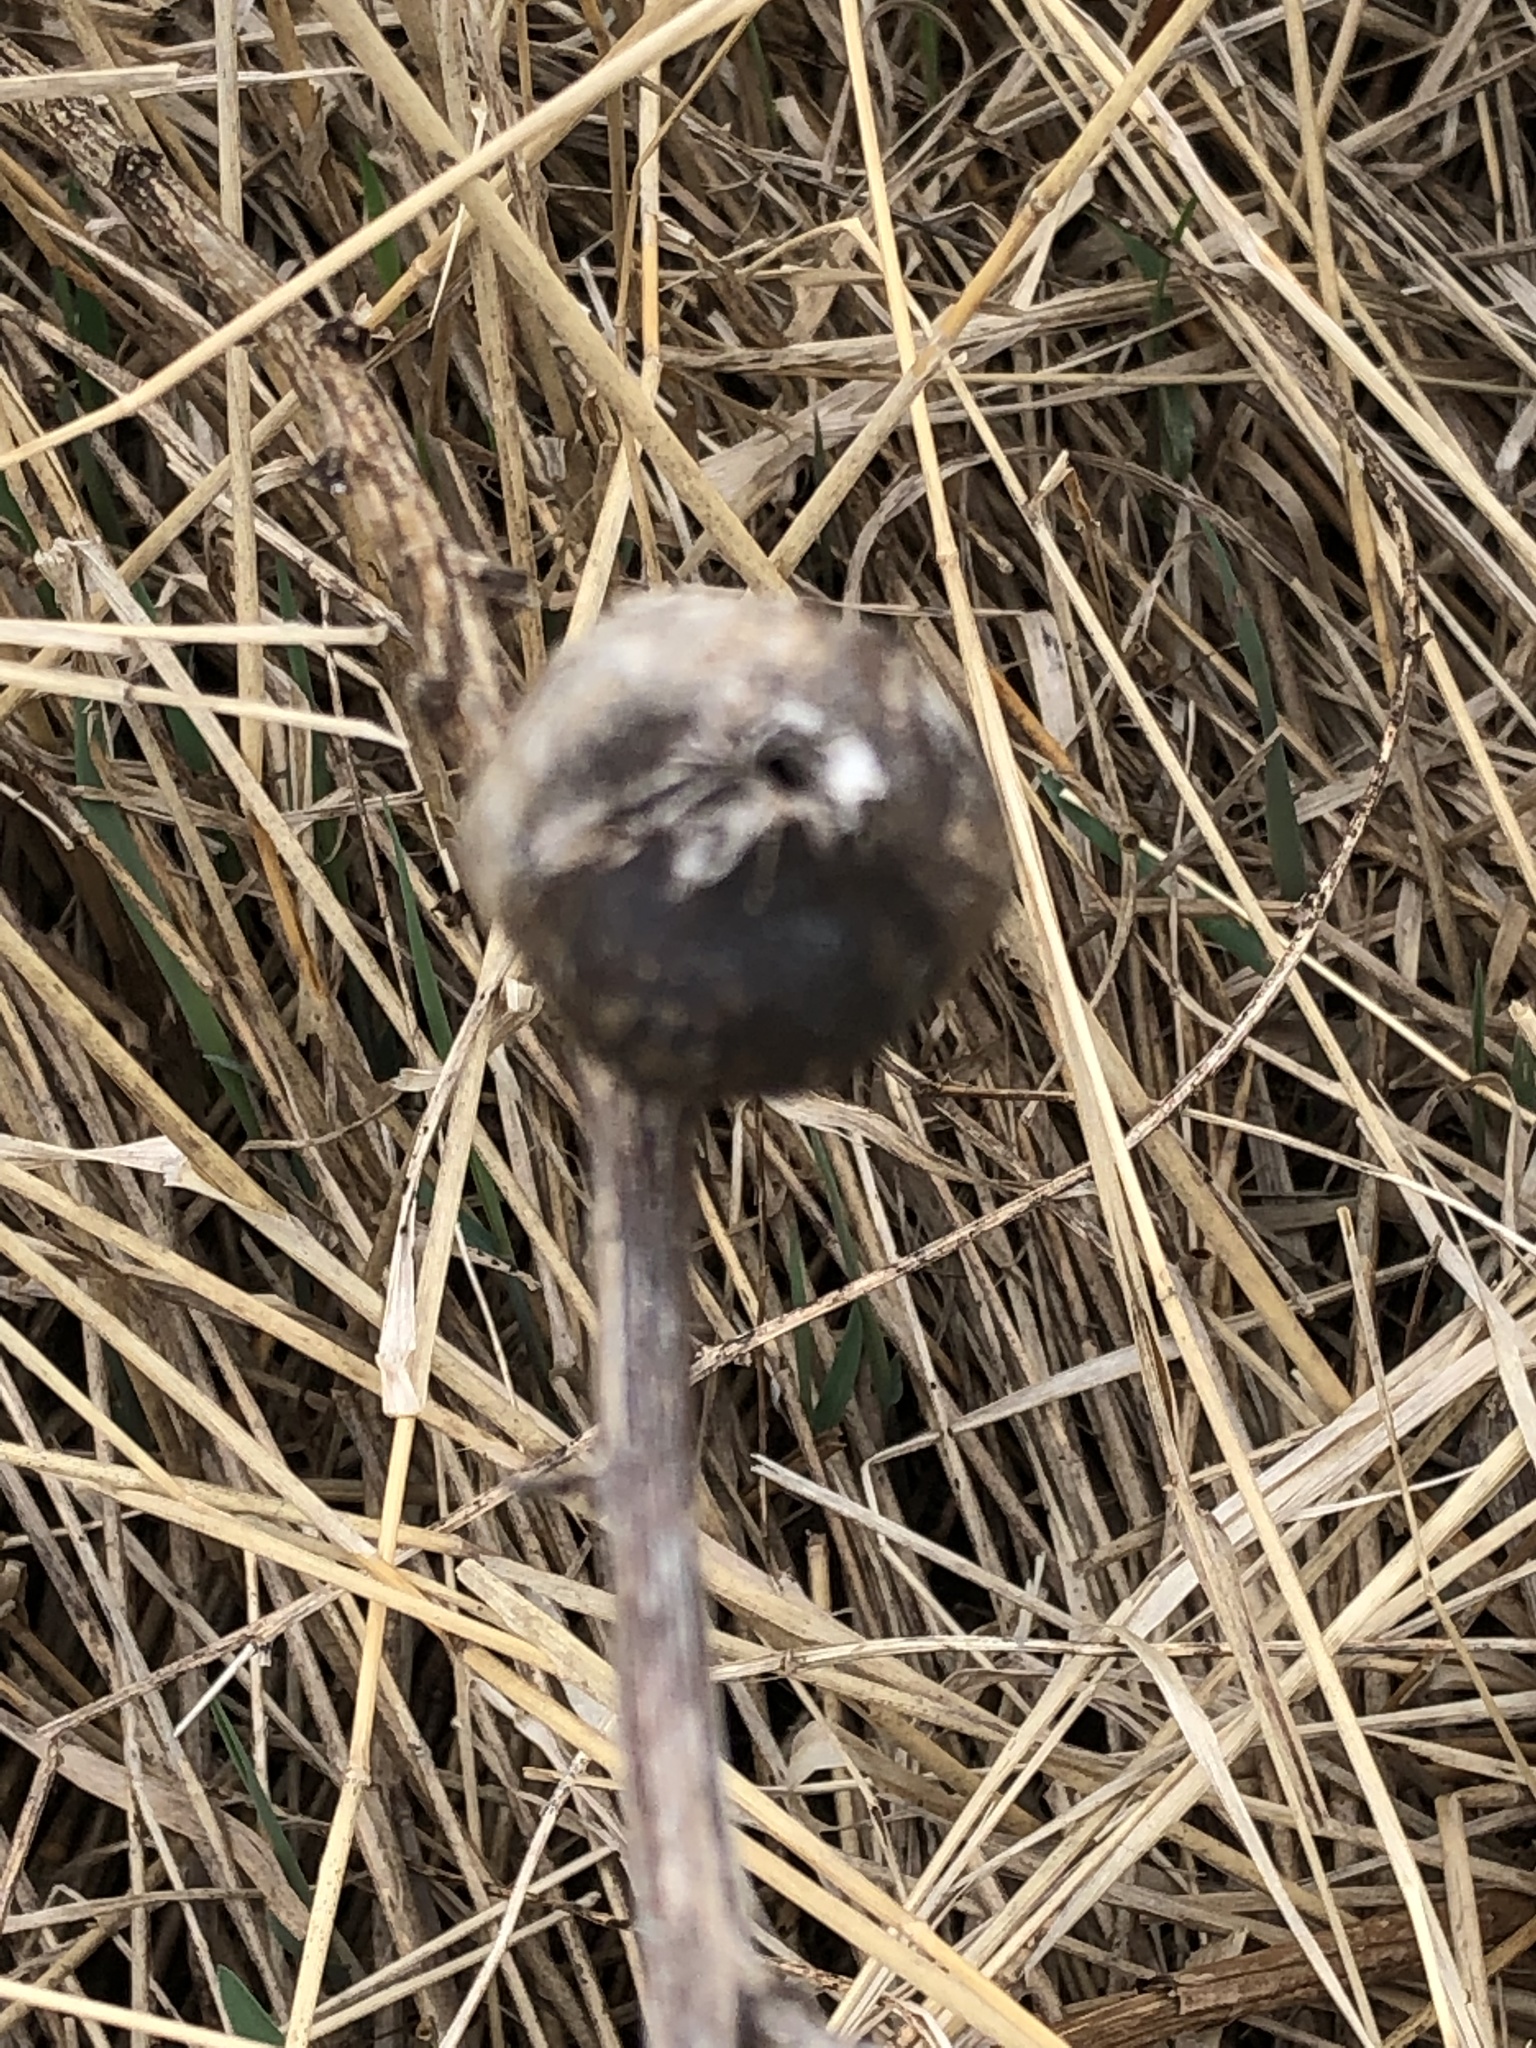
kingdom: Animalia
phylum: Arthropoda
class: Insecta
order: Diptera
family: Tephritidae
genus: Eurosta
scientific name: Eurosta solidaginis
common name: Goldenrod gall fly
